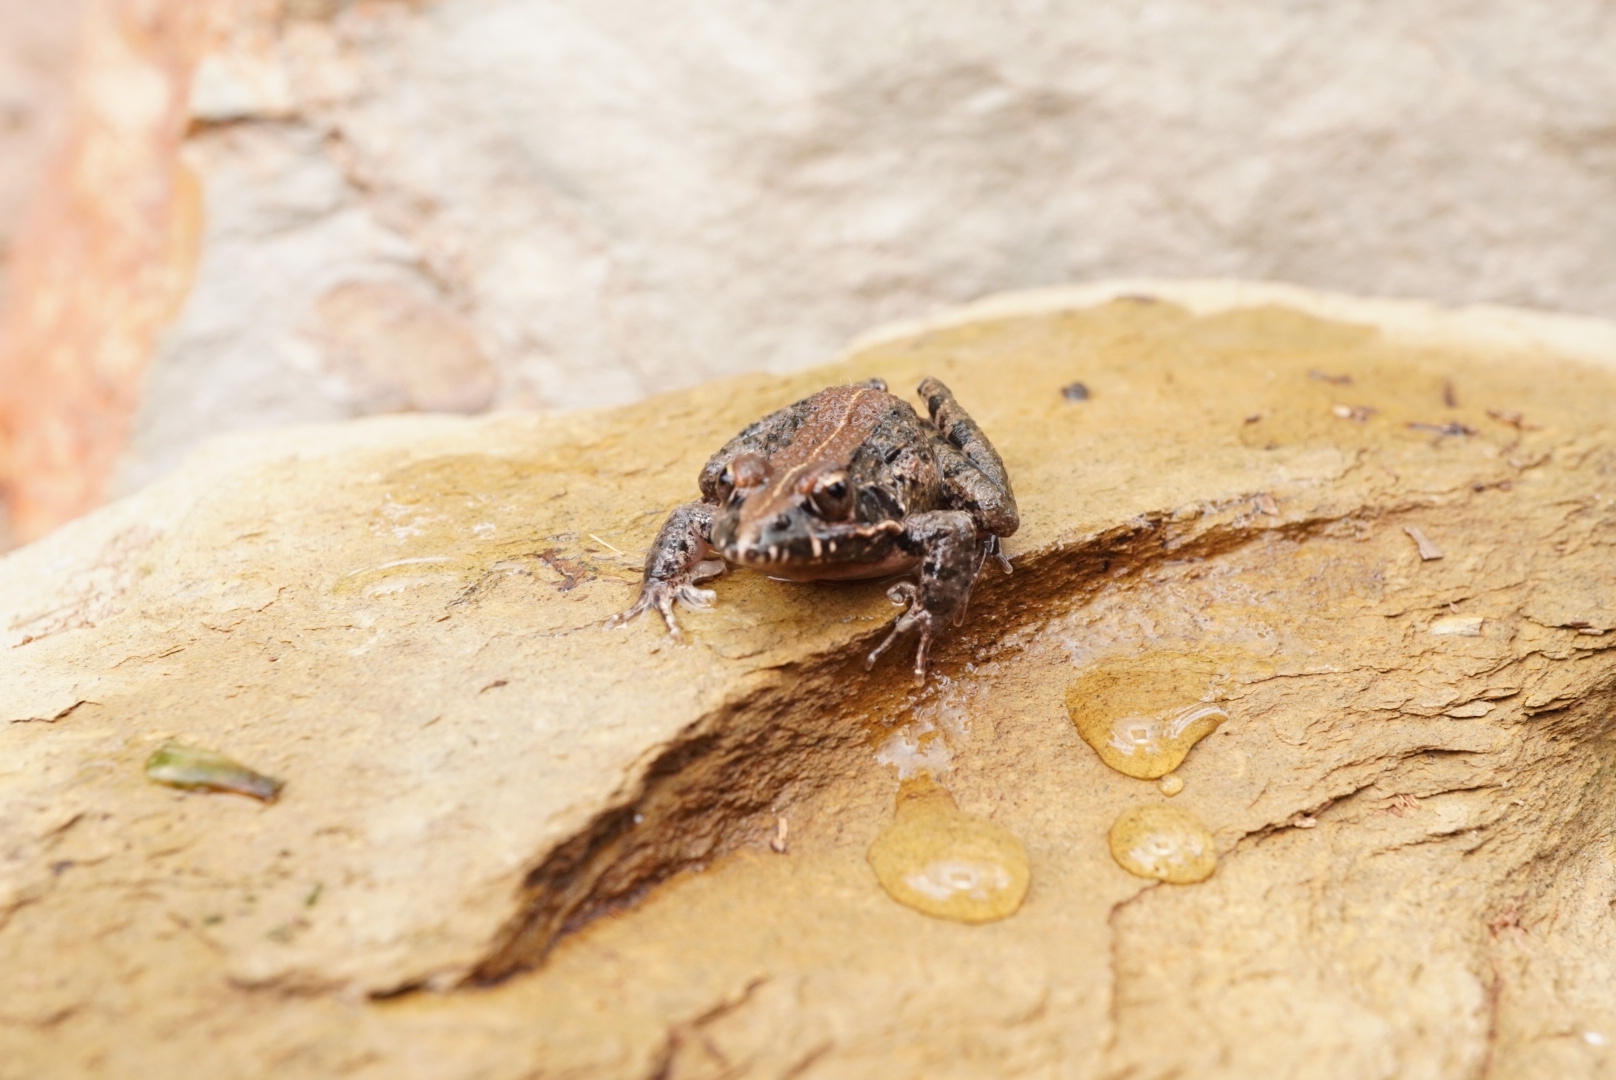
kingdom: Animalia
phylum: Chordata
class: Amphibia
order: Anura
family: Pyxicephalidae
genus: Strongylopus
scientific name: Strongylopus grayii
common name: Gray's stream frog
